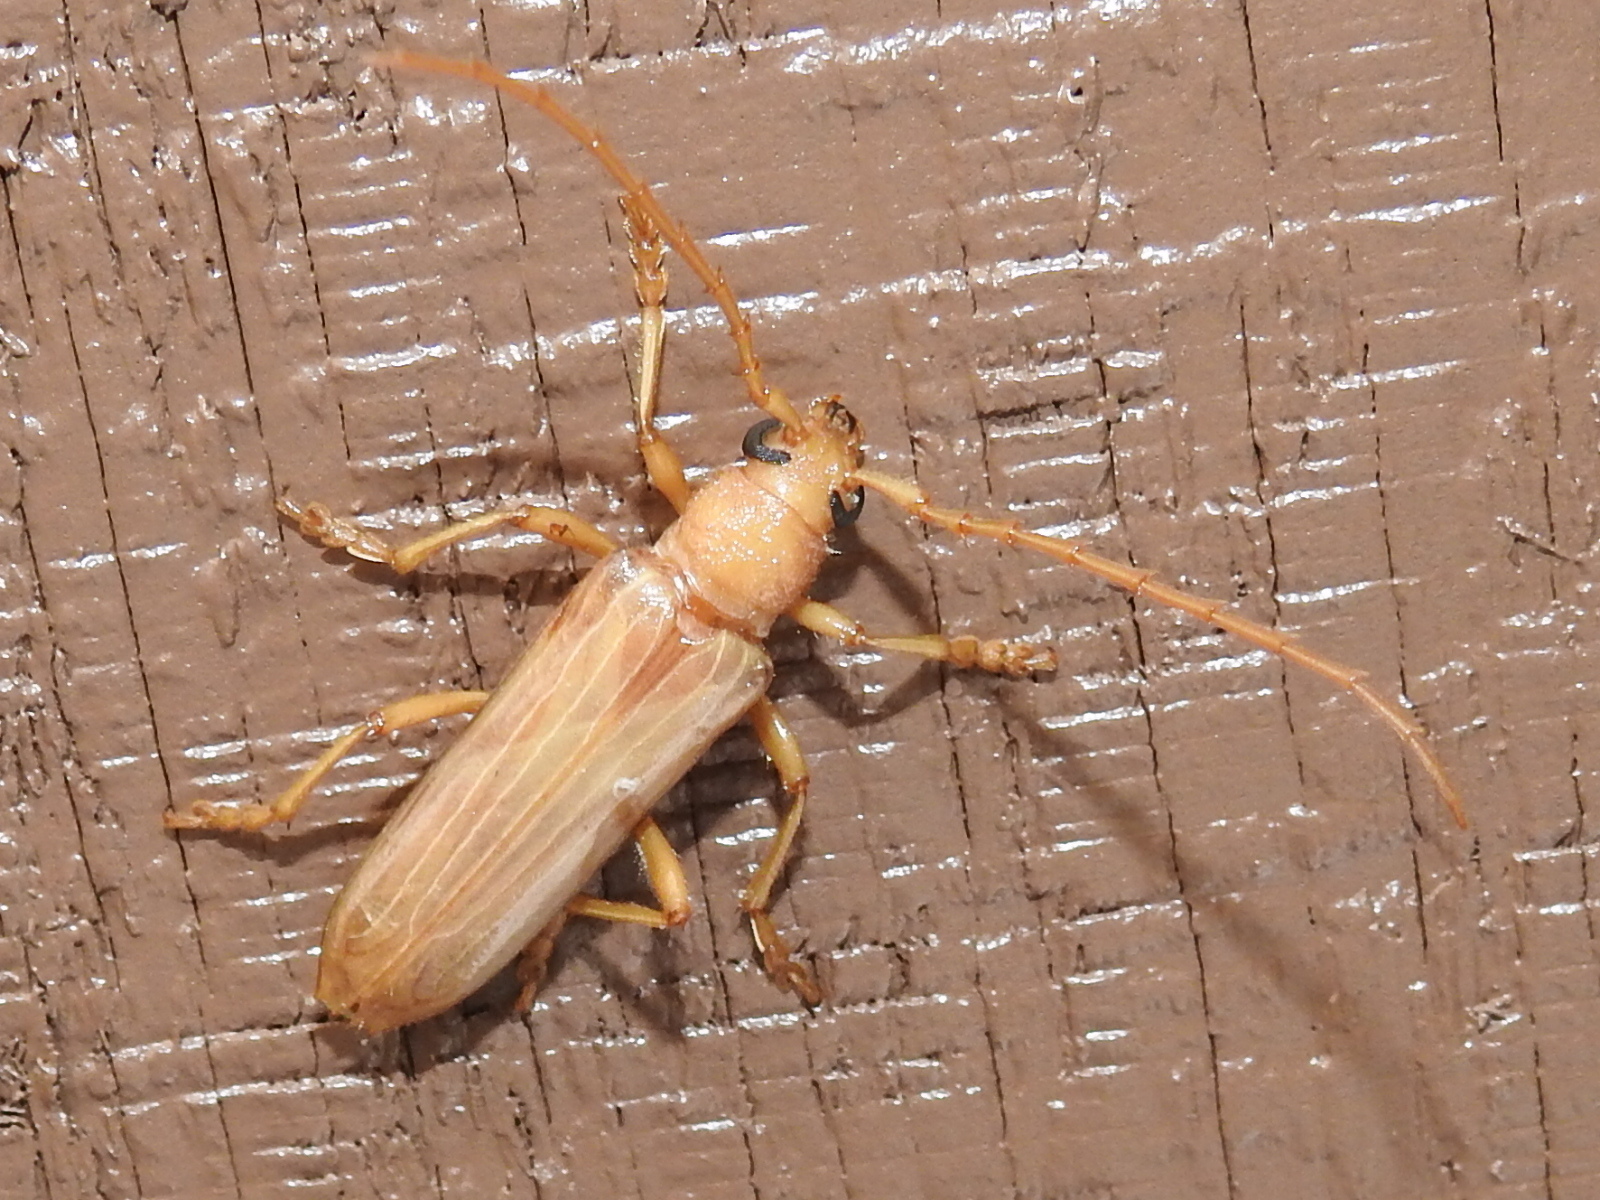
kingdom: Animalia
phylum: Arthropoda
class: Insecta
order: Coleoptera
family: Cerambycidae
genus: Atylostagma
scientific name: Atylostagma polita
